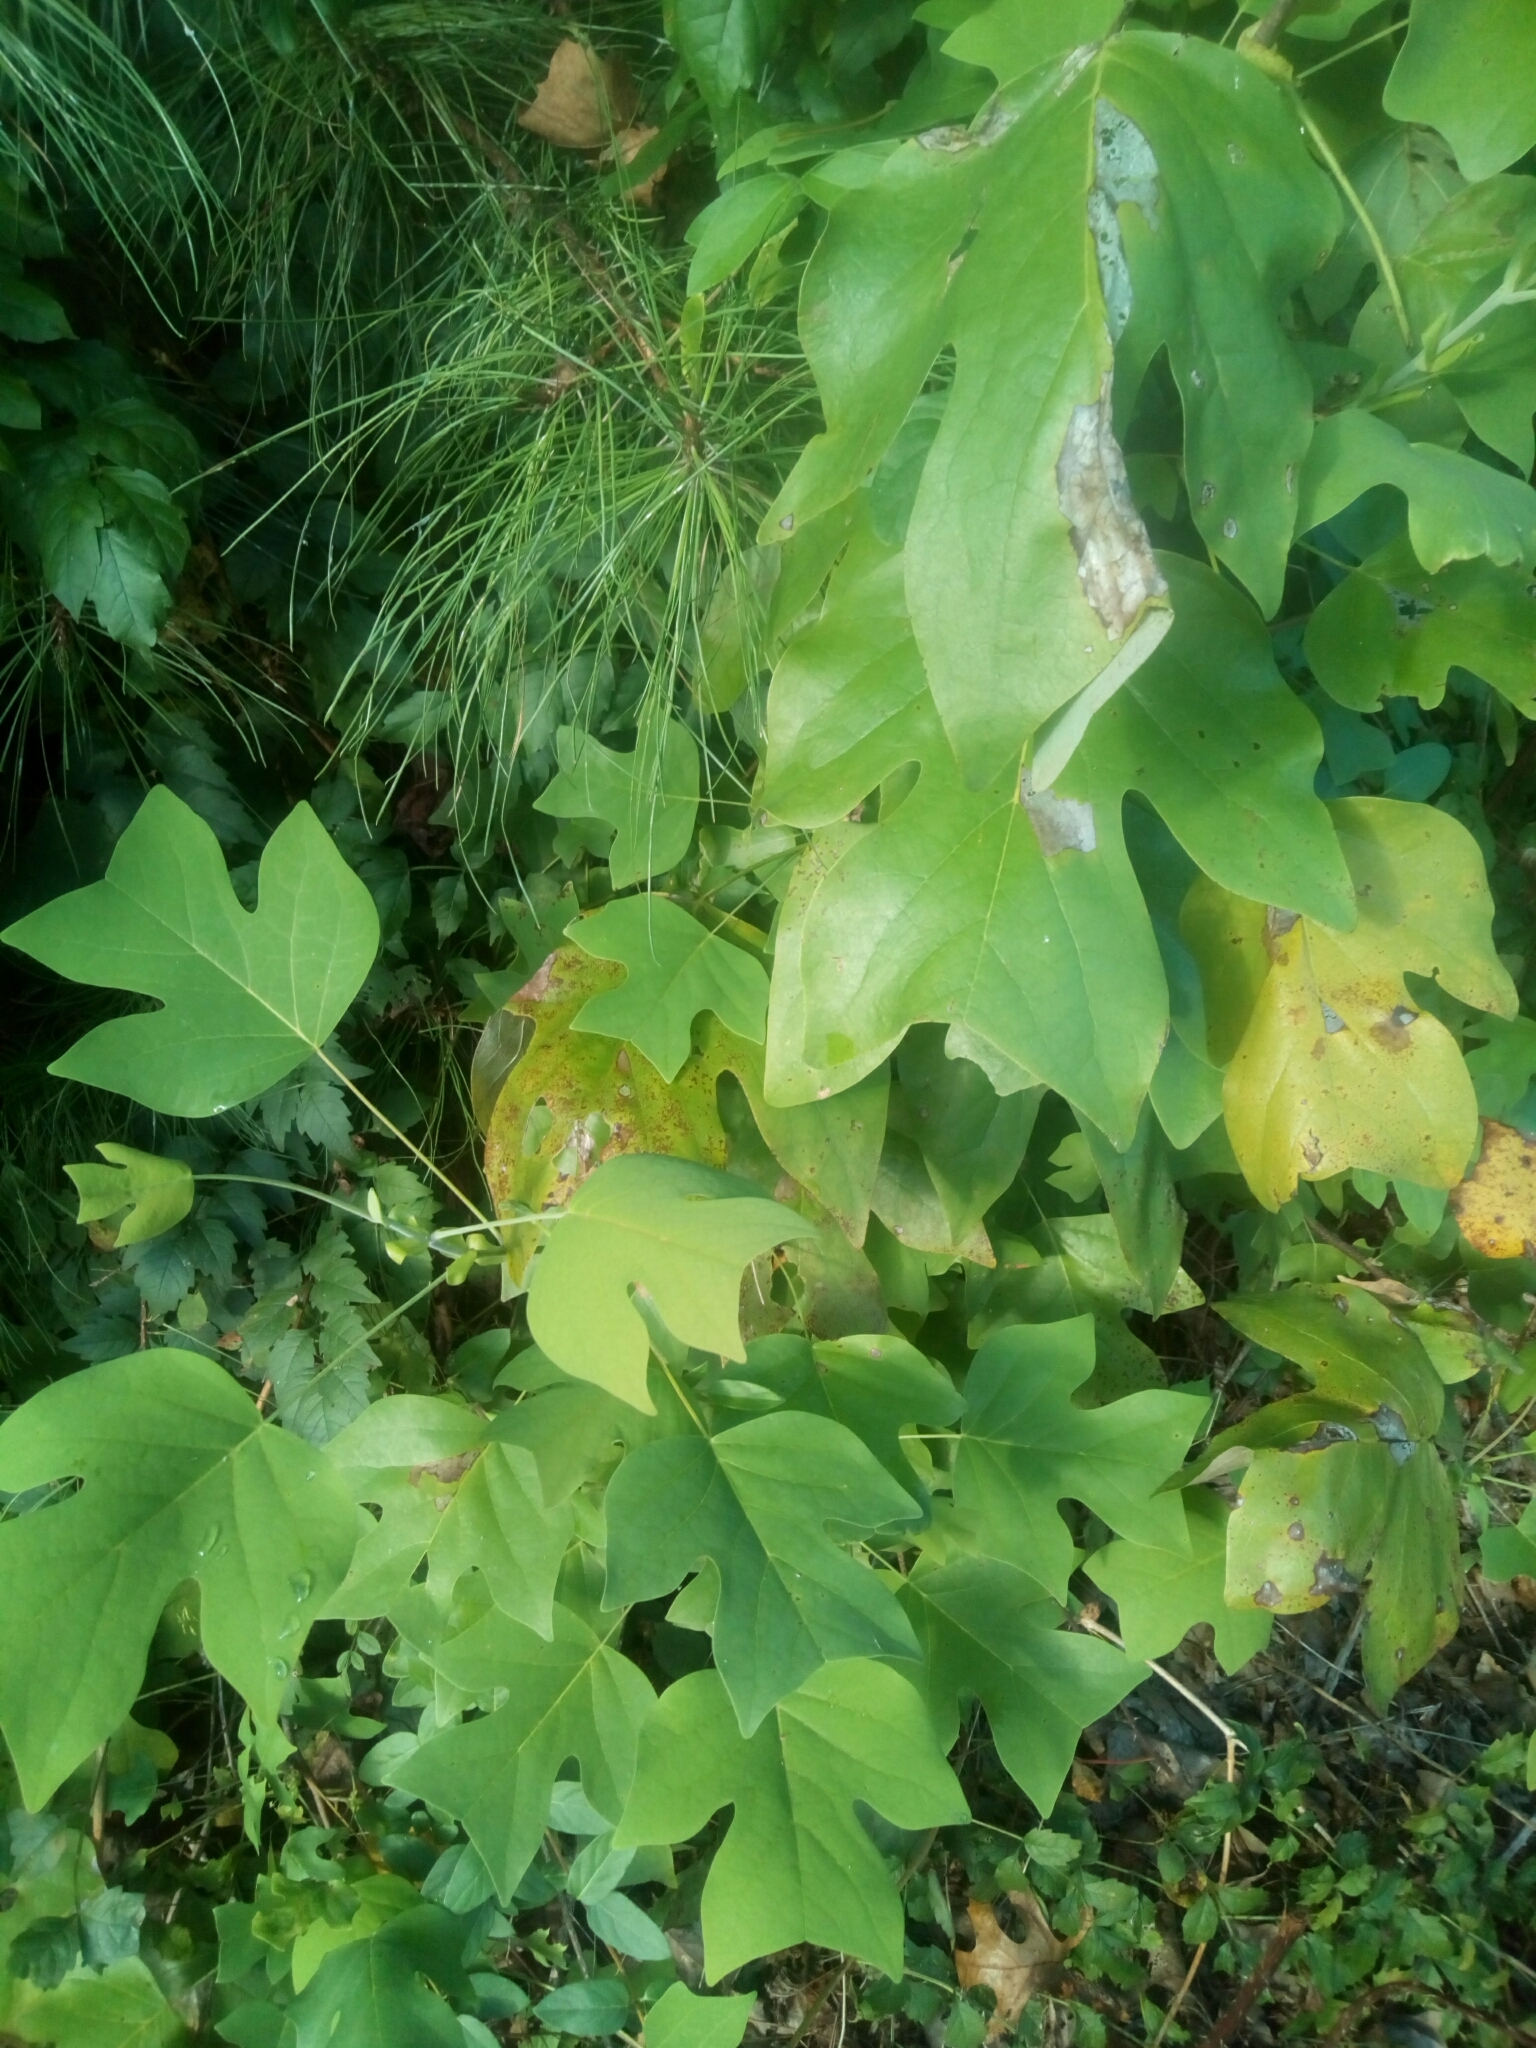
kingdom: Plantae
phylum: Tracheophyta
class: Magnoliopsida
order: Magnoliales
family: Magnoliaceae
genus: Liriodendron
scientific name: Liriodendron tulipifera
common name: Tulip tree
